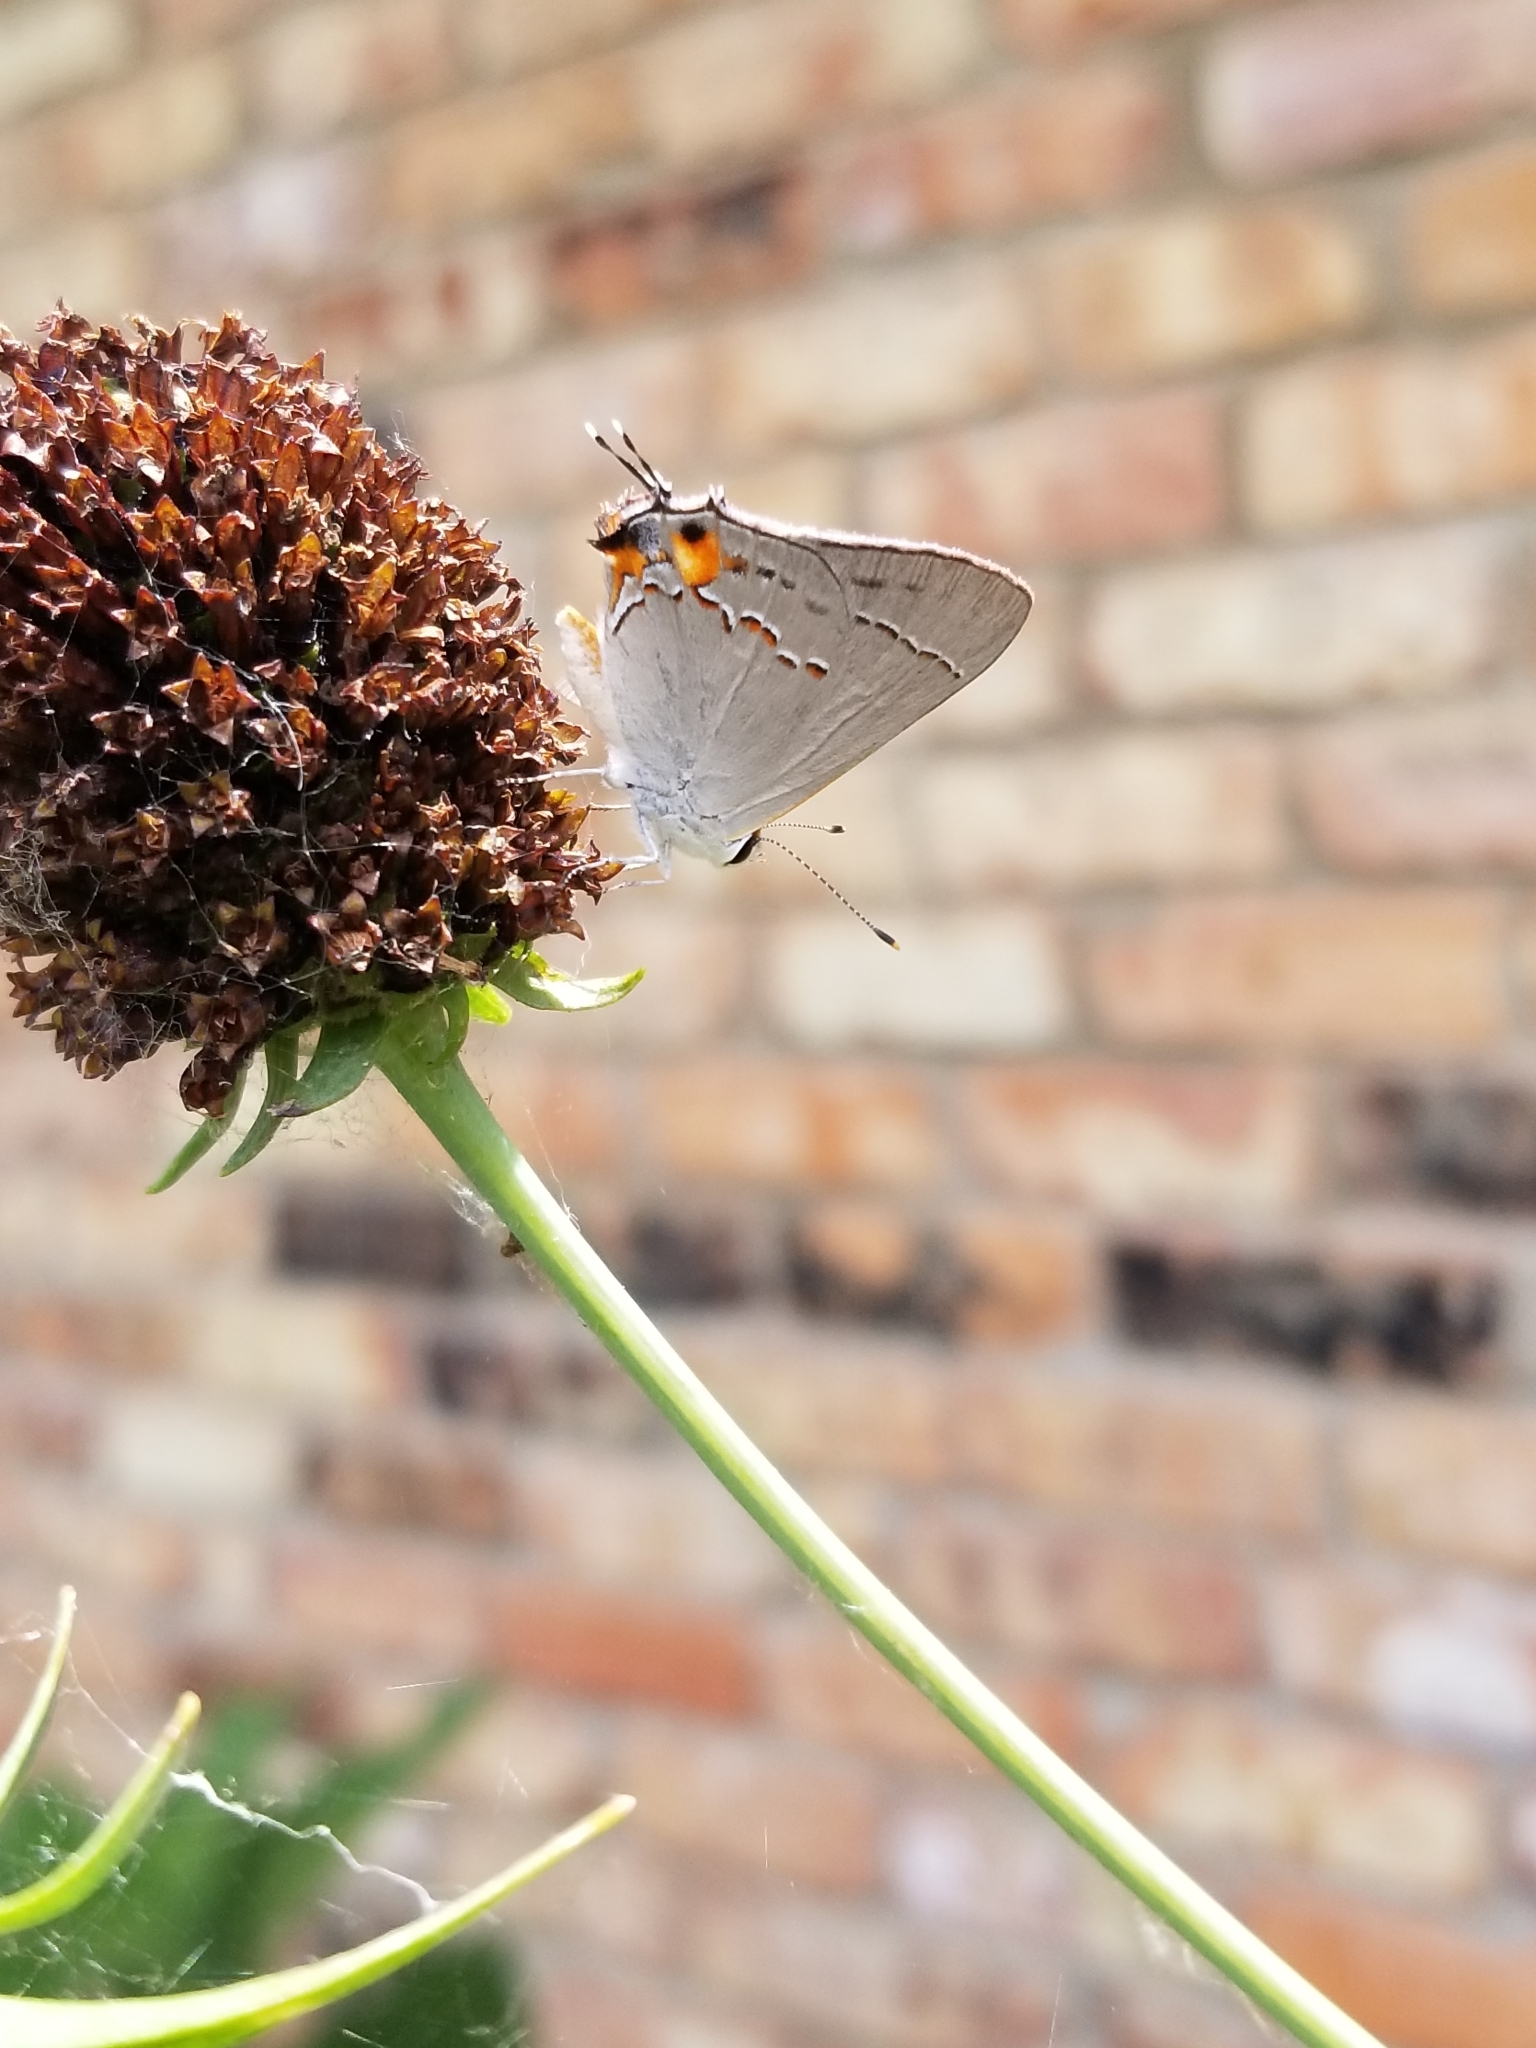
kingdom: Animalia
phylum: Arthropoda
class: Insecta
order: Lepidoptera
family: Lycaenidae
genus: Strymon
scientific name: Strymon melinus
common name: Gray hairstreak
